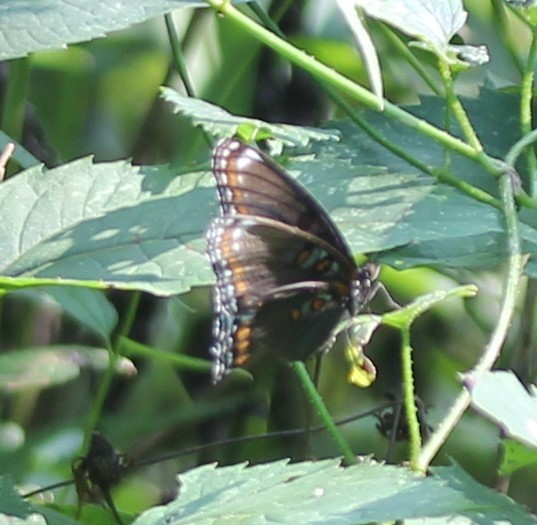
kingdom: Animalia
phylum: Arthropoda
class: Insecta
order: Lepidoptera
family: Nymphalidae
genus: Limenitis
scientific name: Limenitis astyanax
